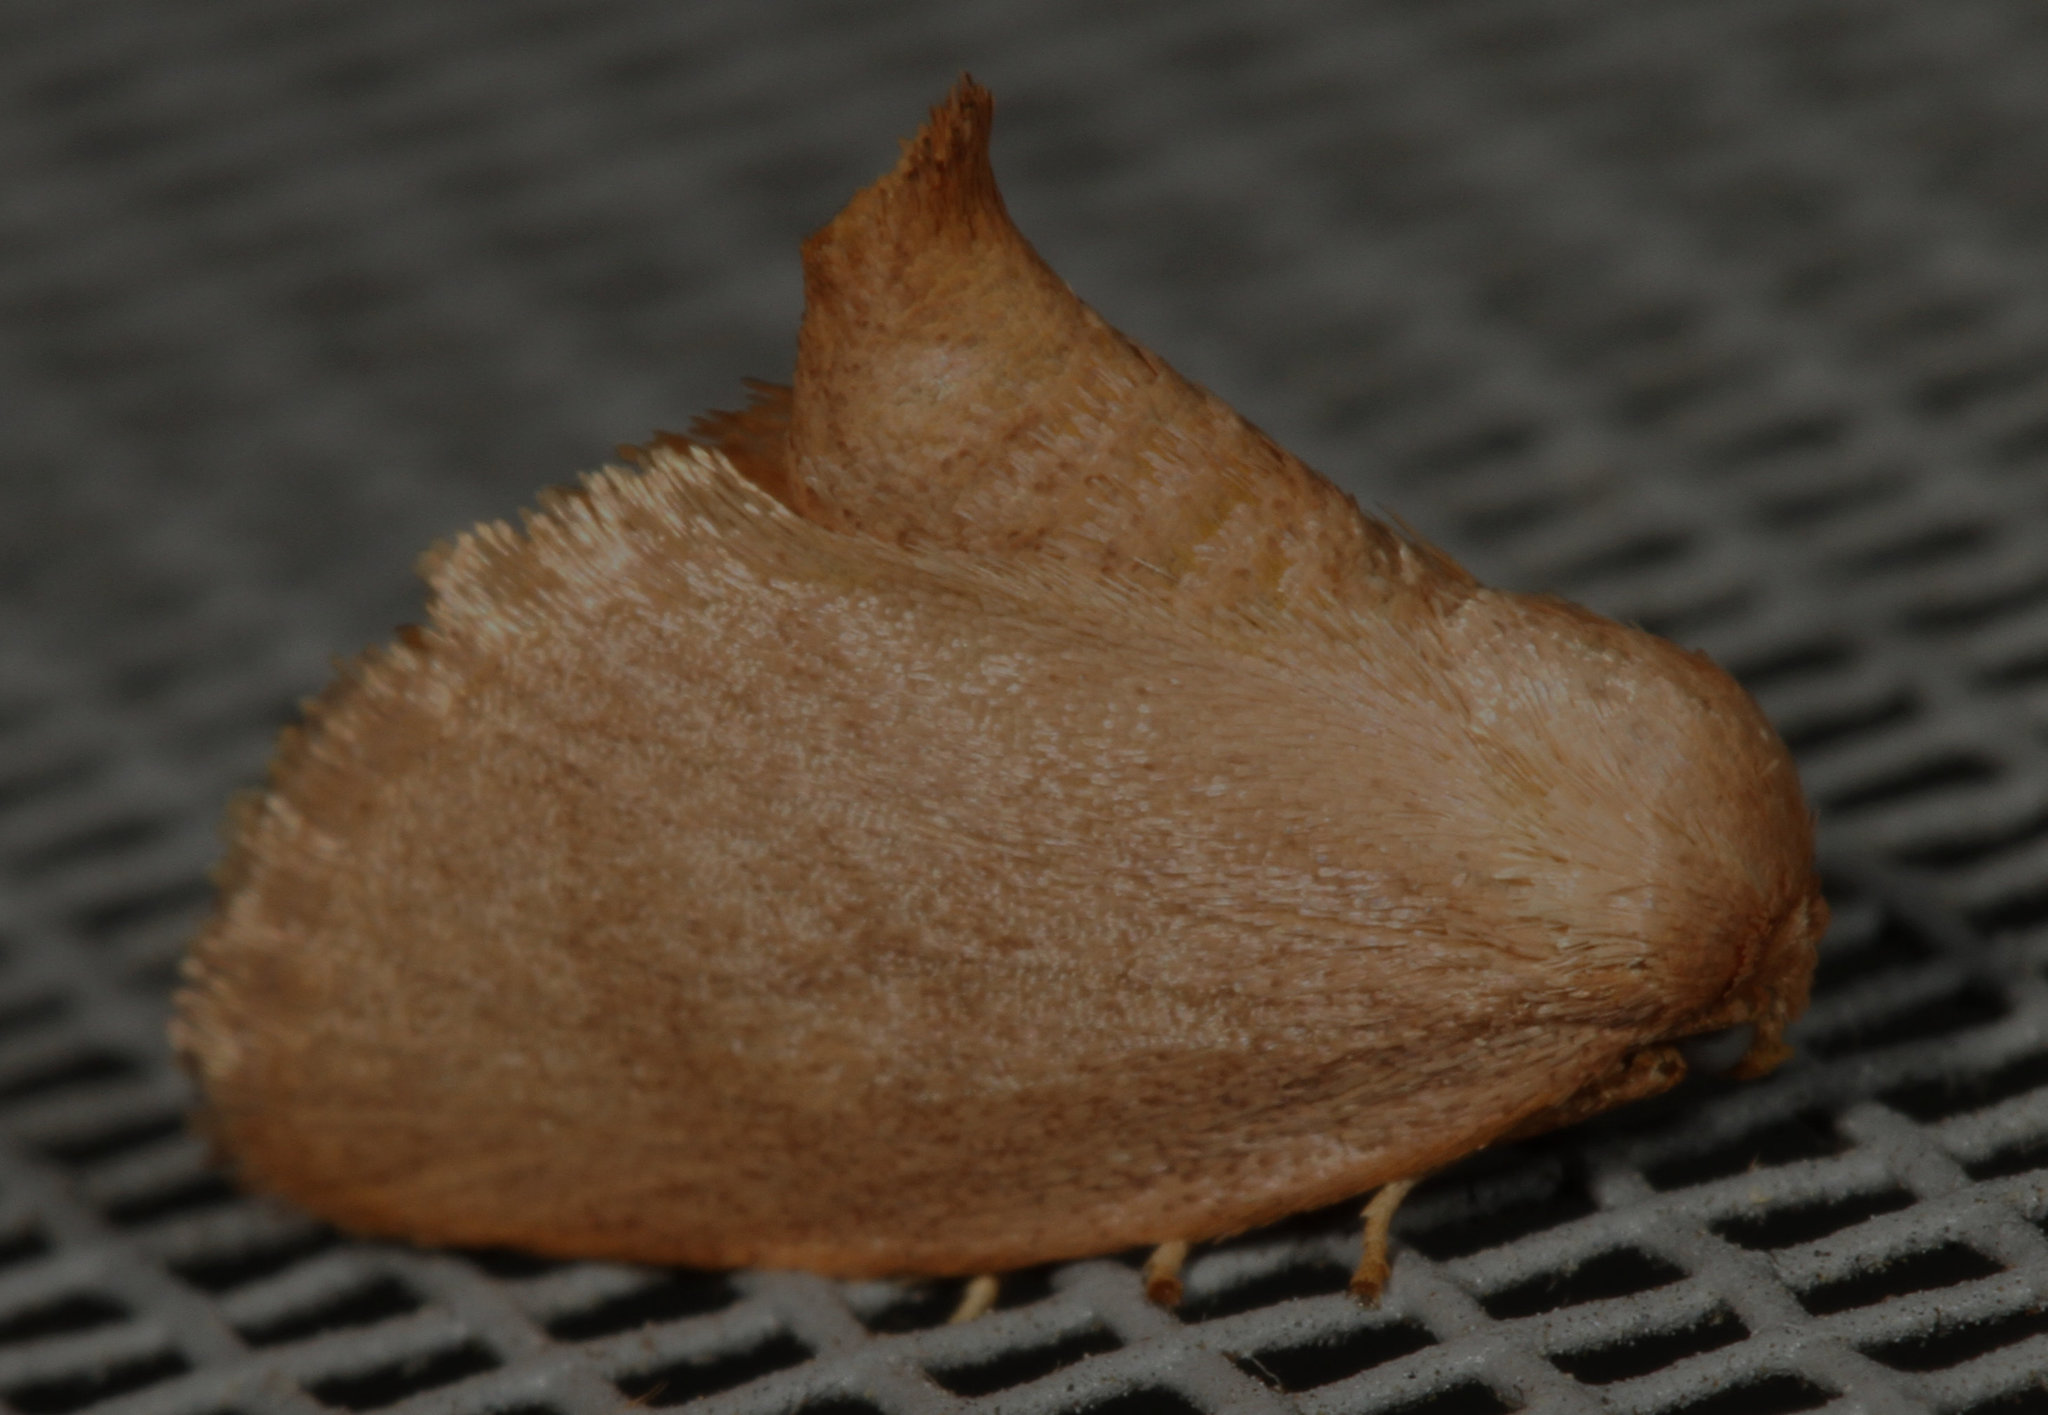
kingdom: Animalia
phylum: Arthropoda
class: Insecta
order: Lepidoptera
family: Limacodidae
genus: Tortricidia
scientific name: Tortricidia pallida
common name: Red-crossed button slug moth
